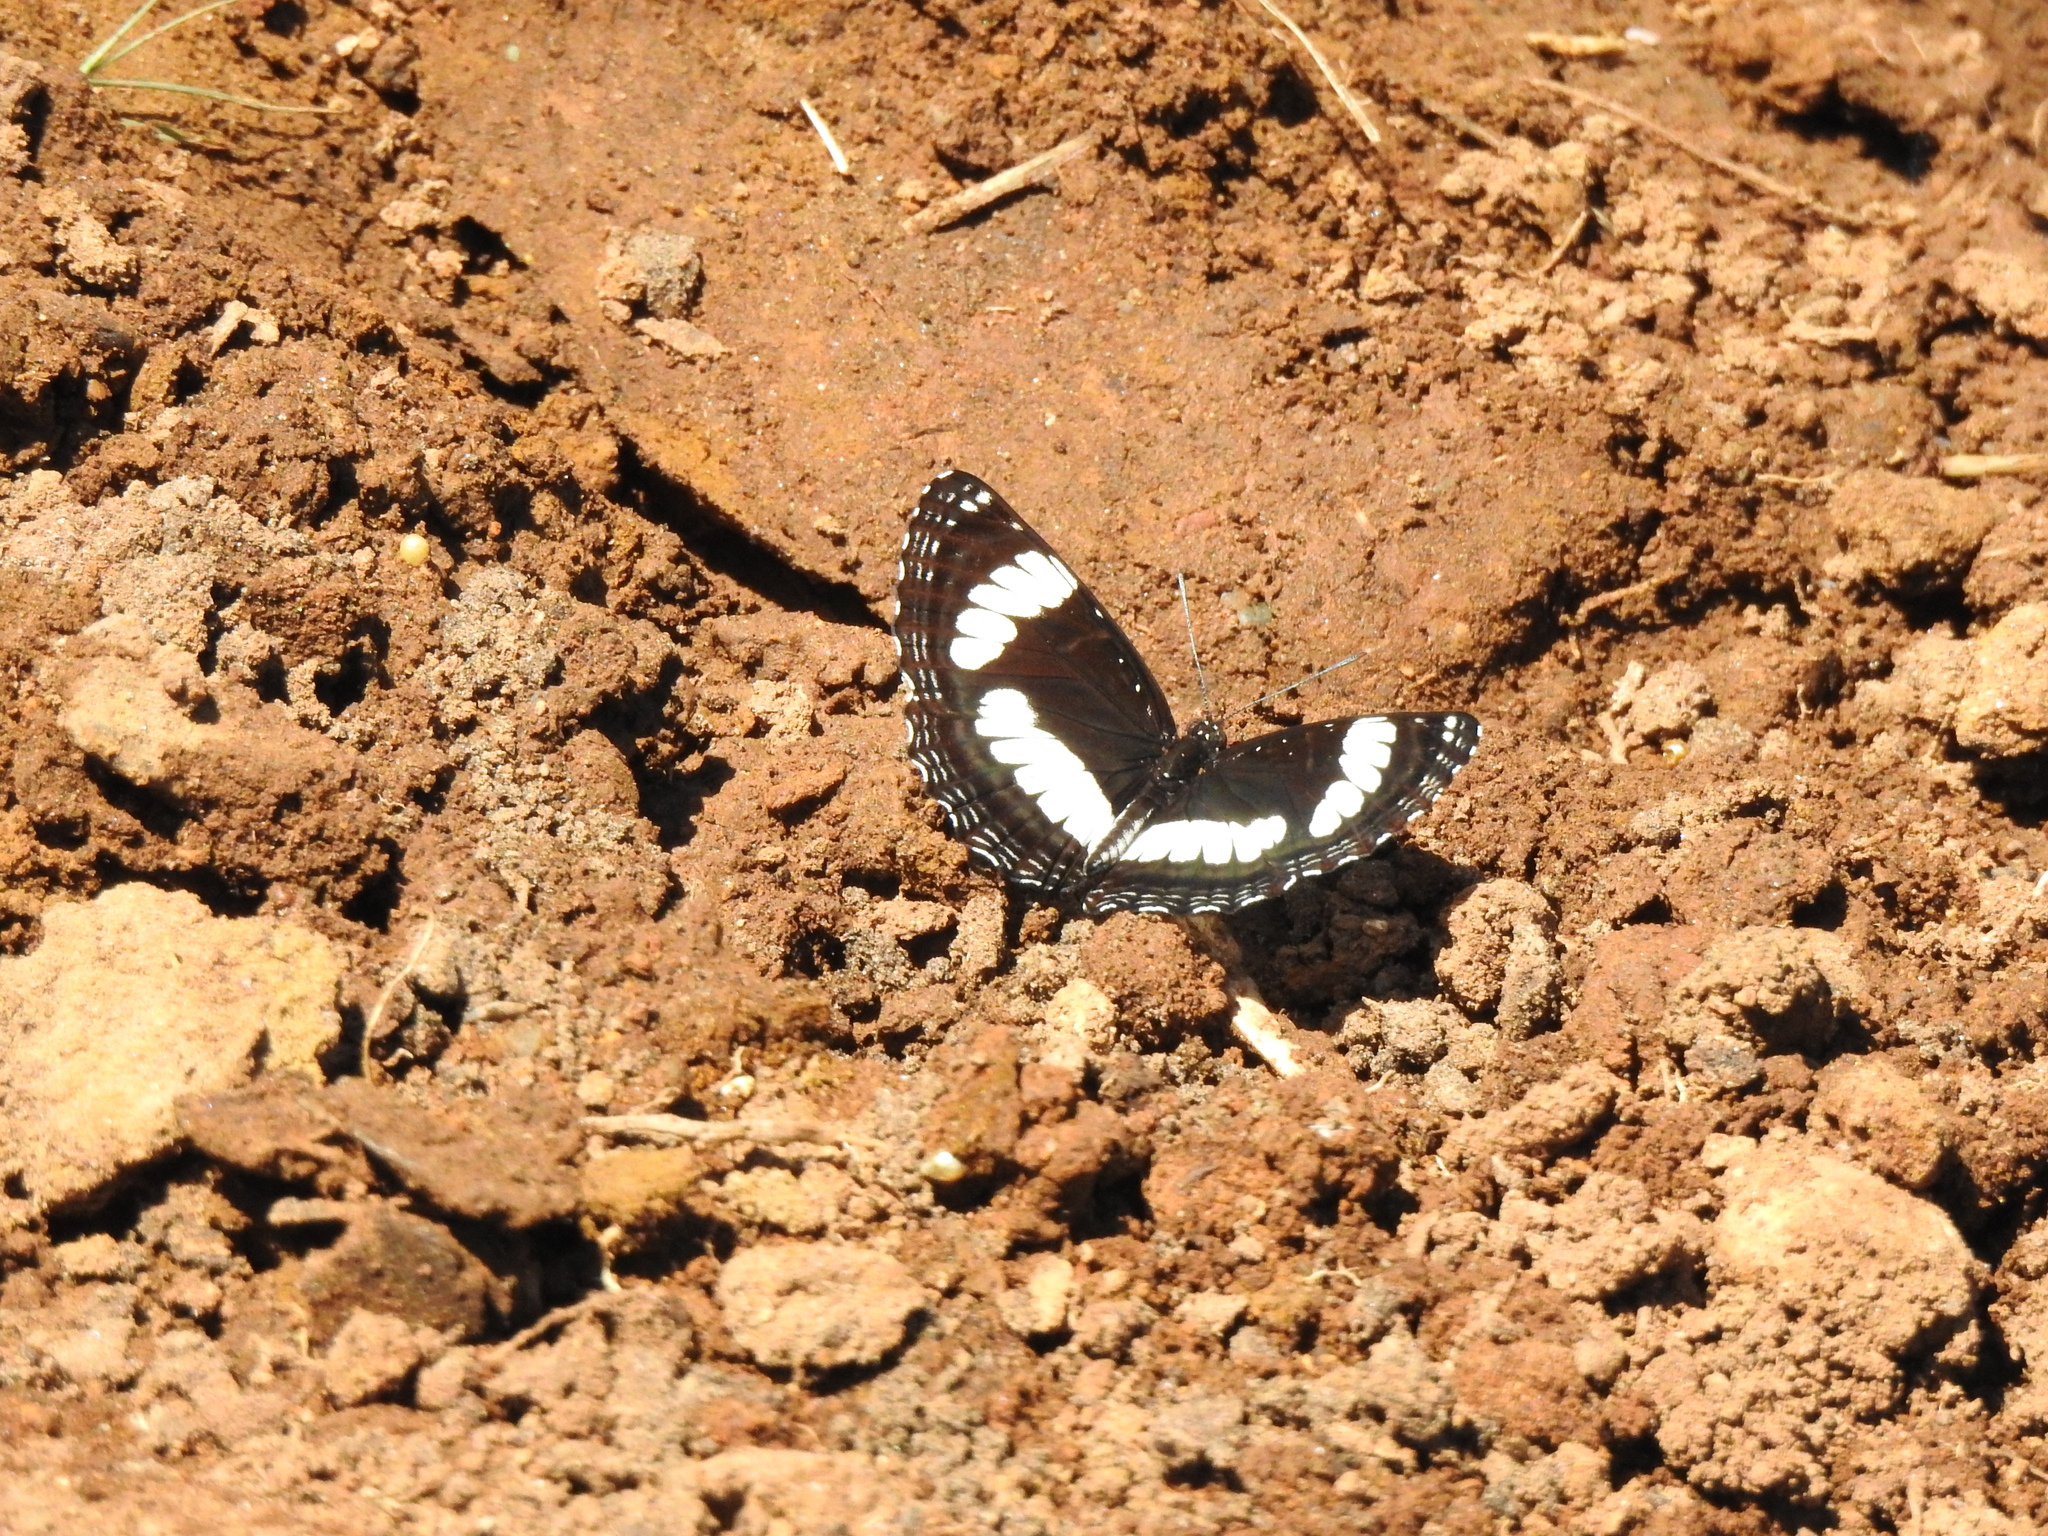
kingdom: Animalia
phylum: Arthropoda
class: Insecta
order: Lepidoptera
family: Nymphalidae
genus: Neptis
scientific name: Neptis laeta
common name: Common barred sailor
